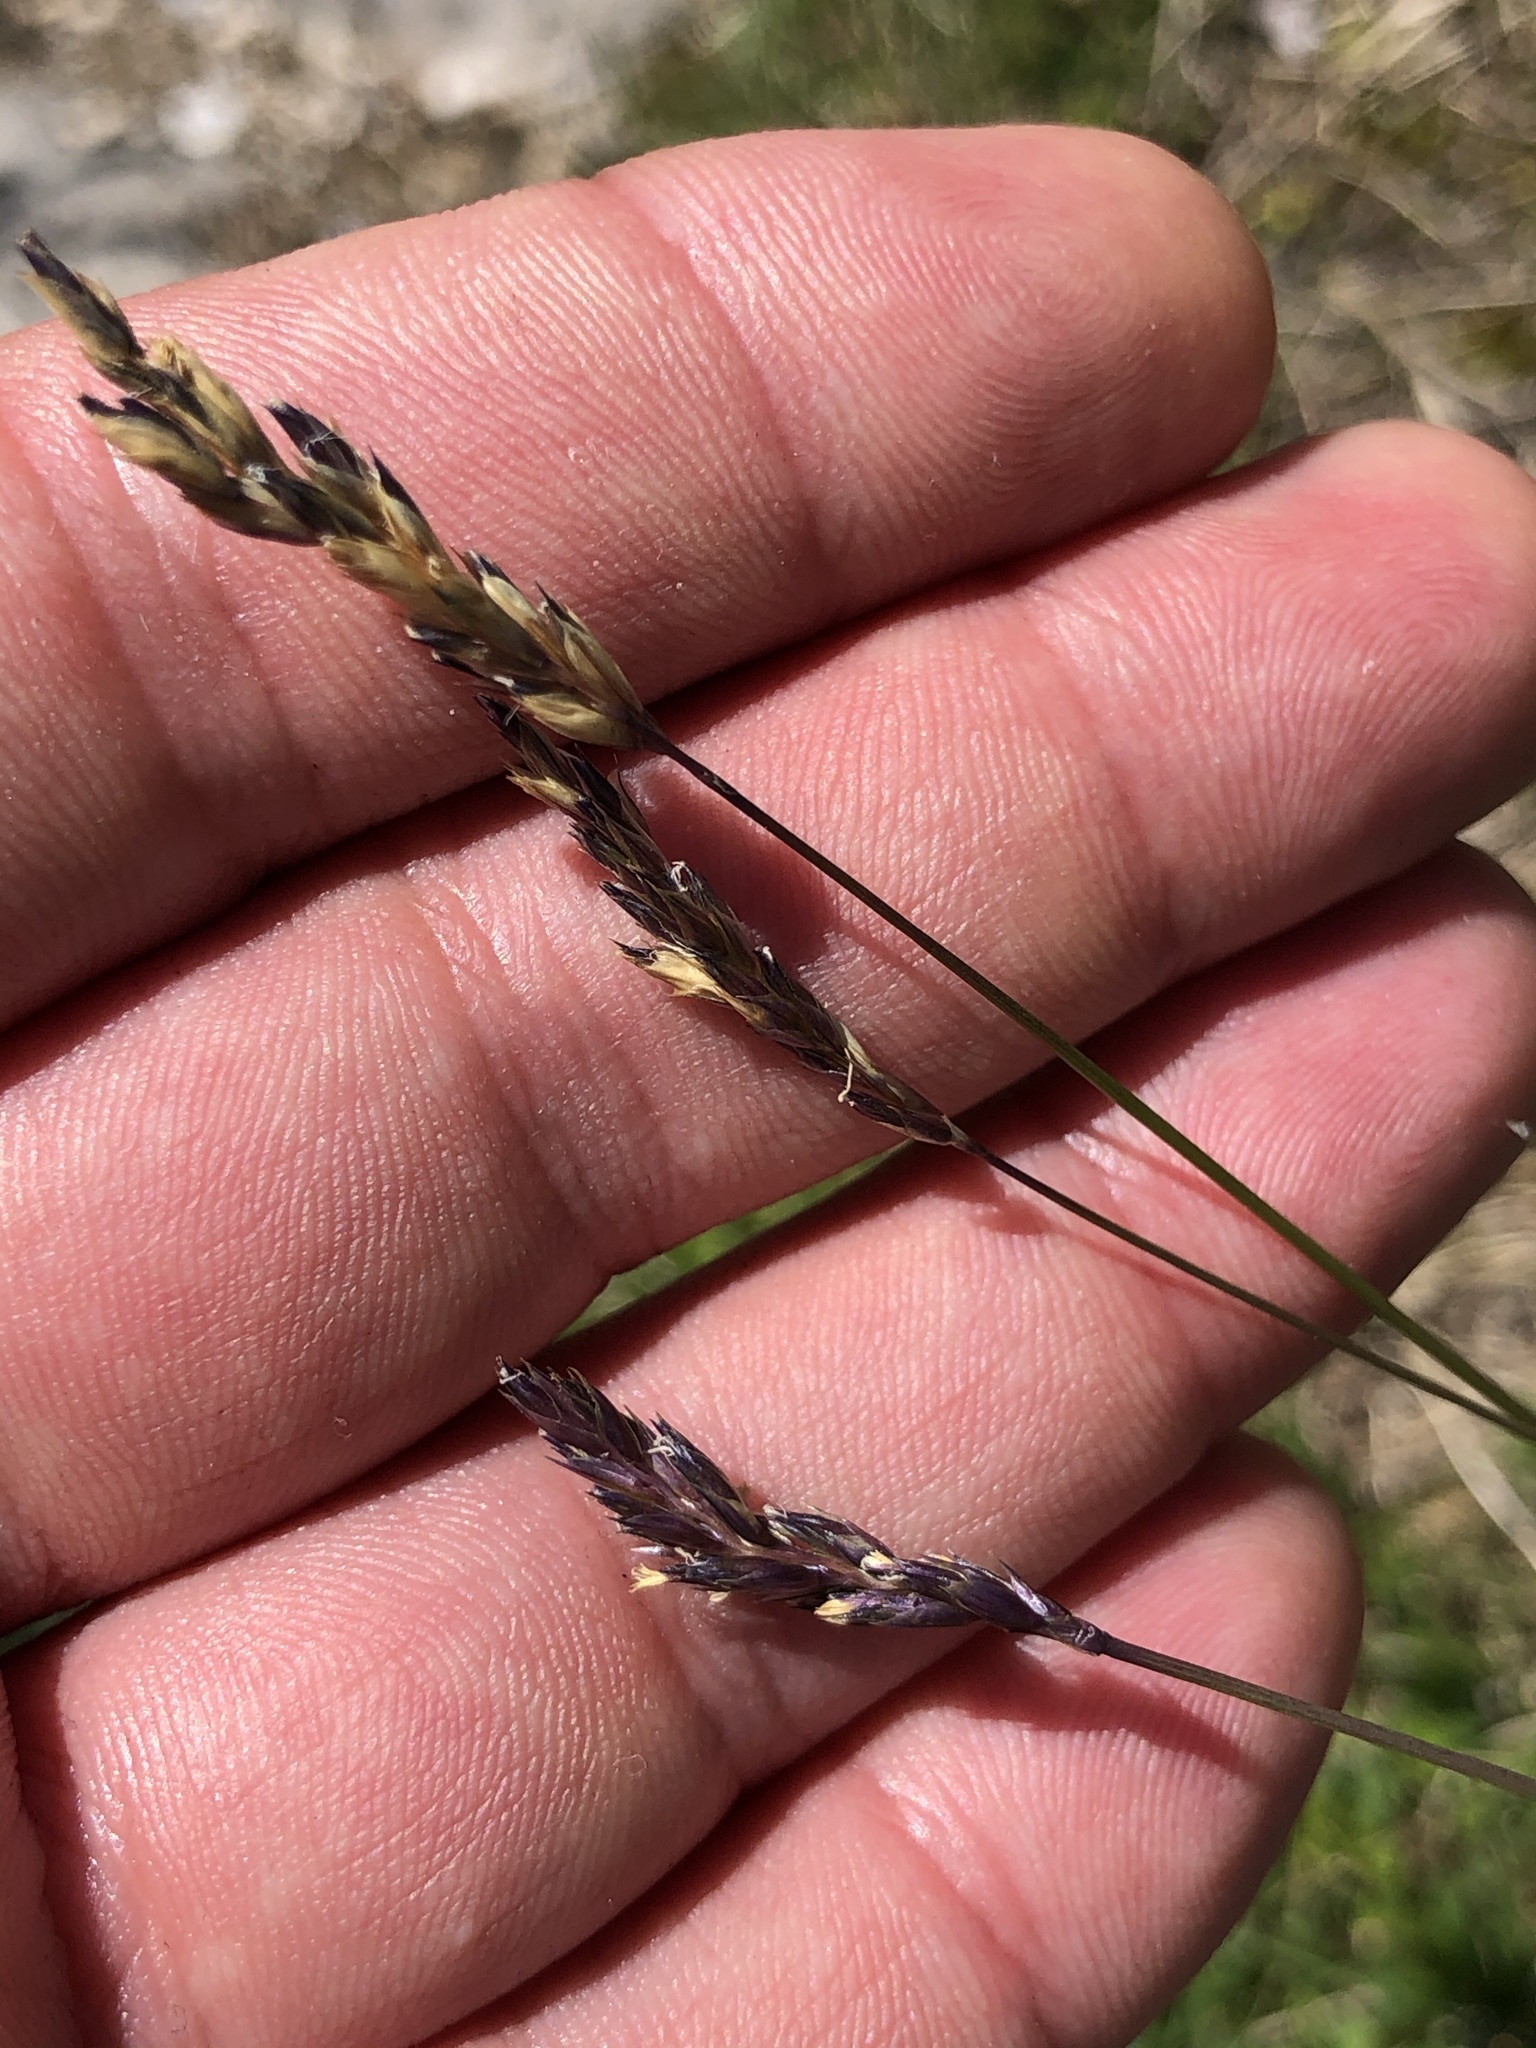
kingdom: Plantae
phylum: Tracheophyta
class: Liliopsida
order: Poales
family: Poaceae
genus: Sesleria
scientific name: Sesleria albicans
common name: Blue moor-grass
